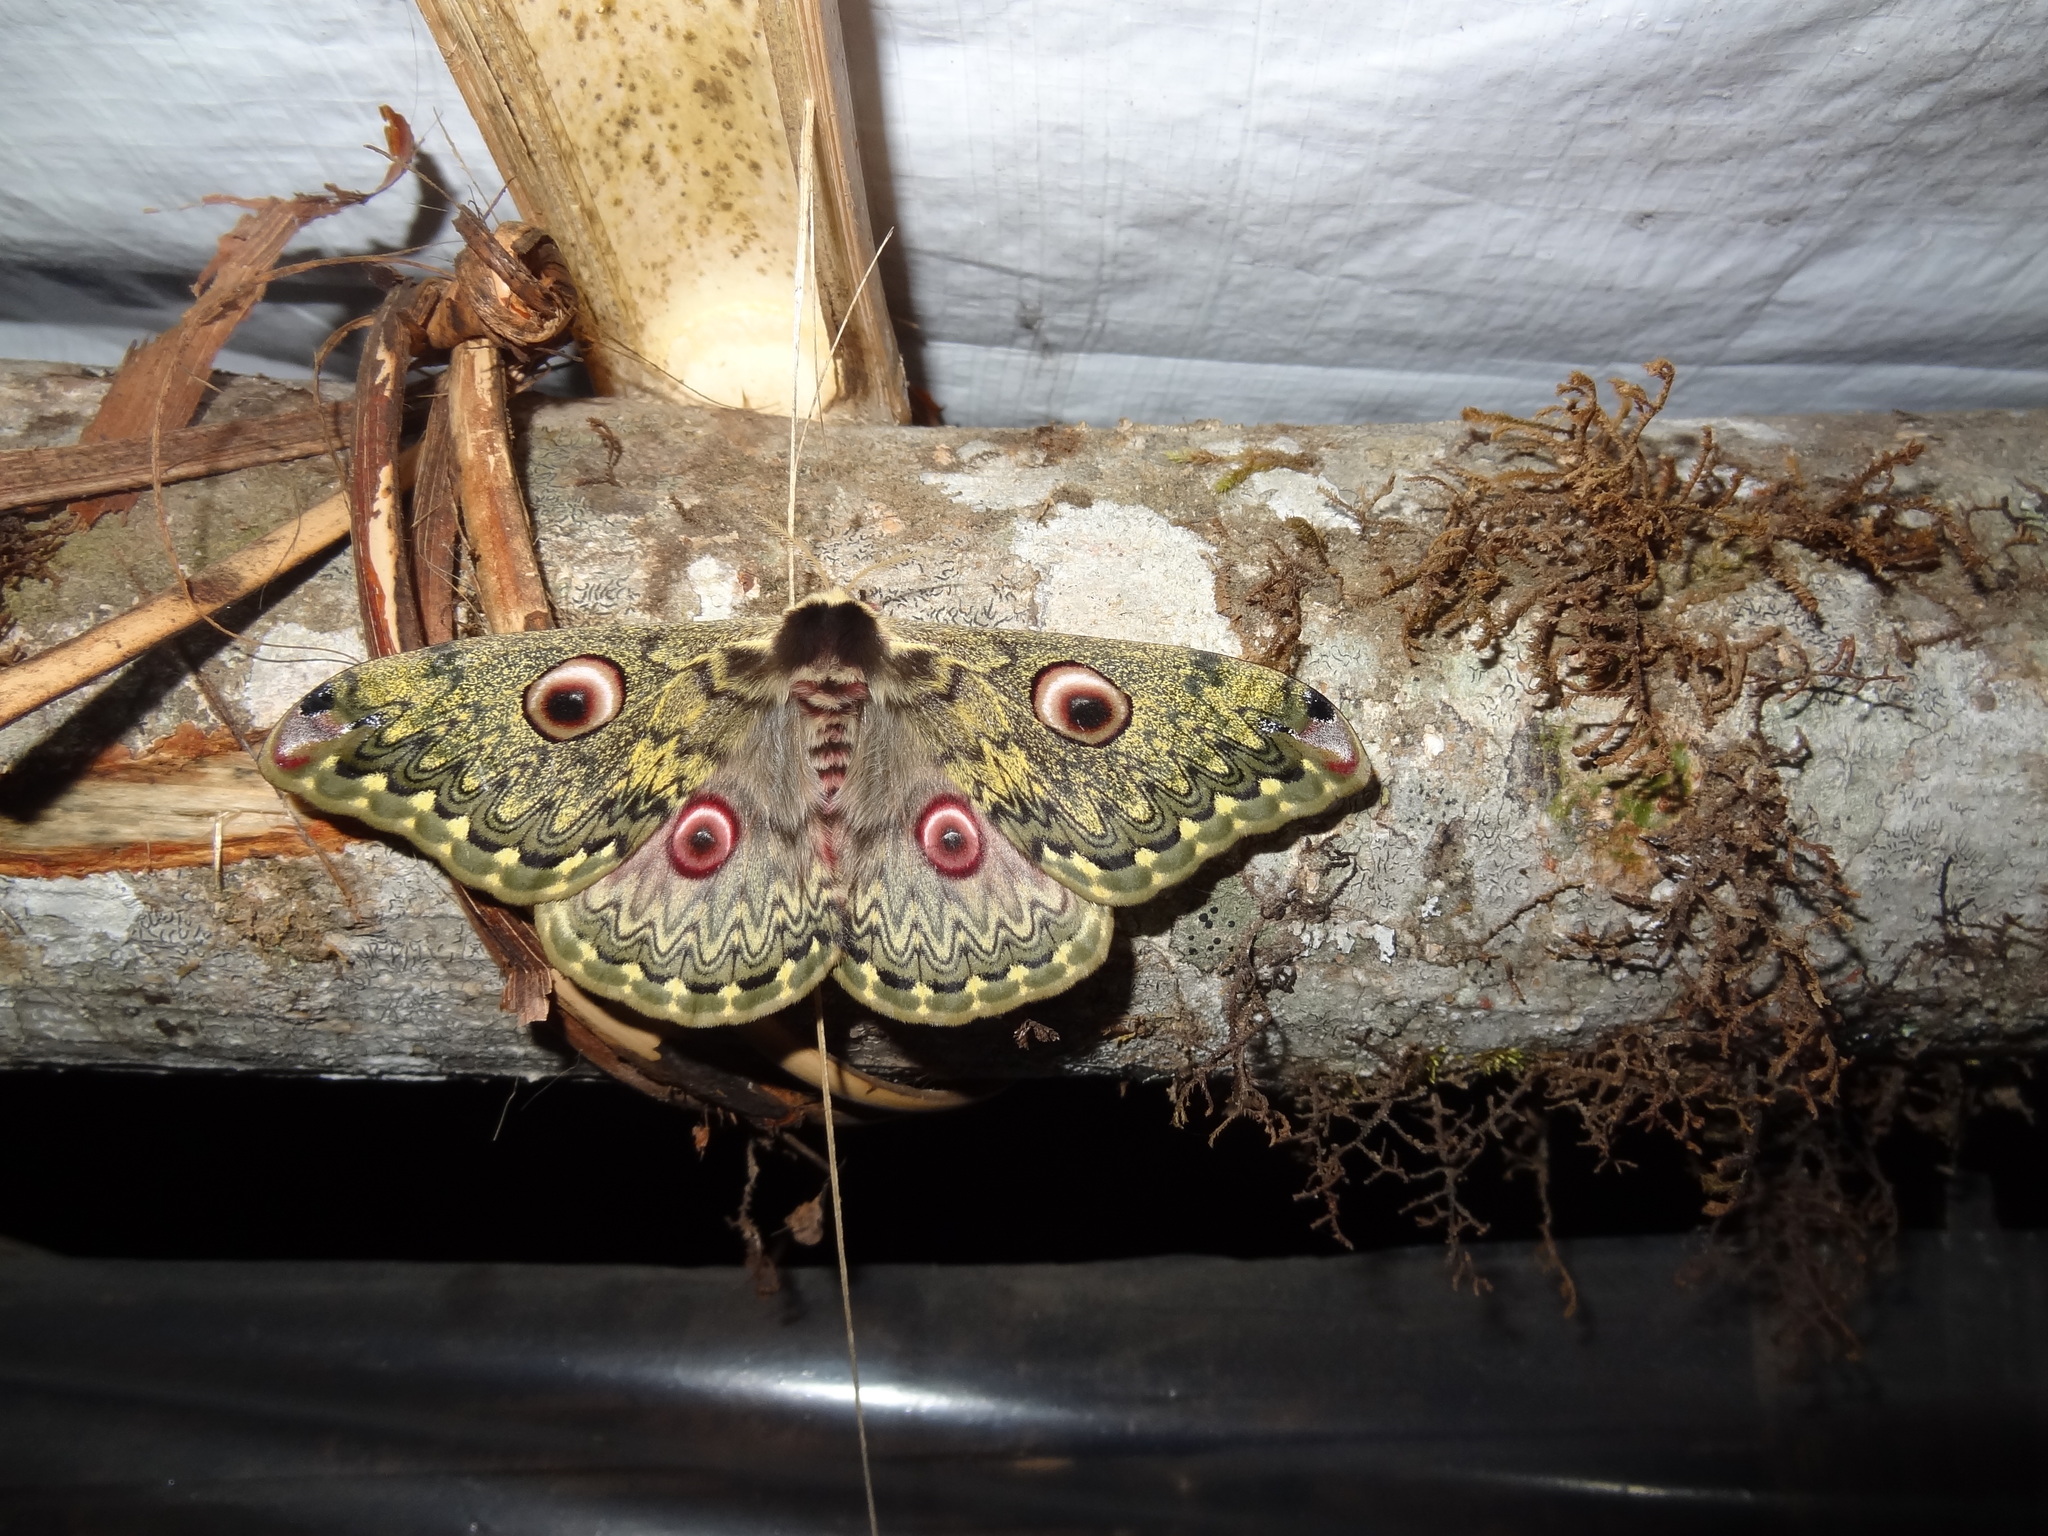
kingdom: Animalia
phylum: Arthropoda
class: Insecta
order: Lepidoptera
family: Saturniidae
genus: Saturnia
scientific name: Saturnia anna
